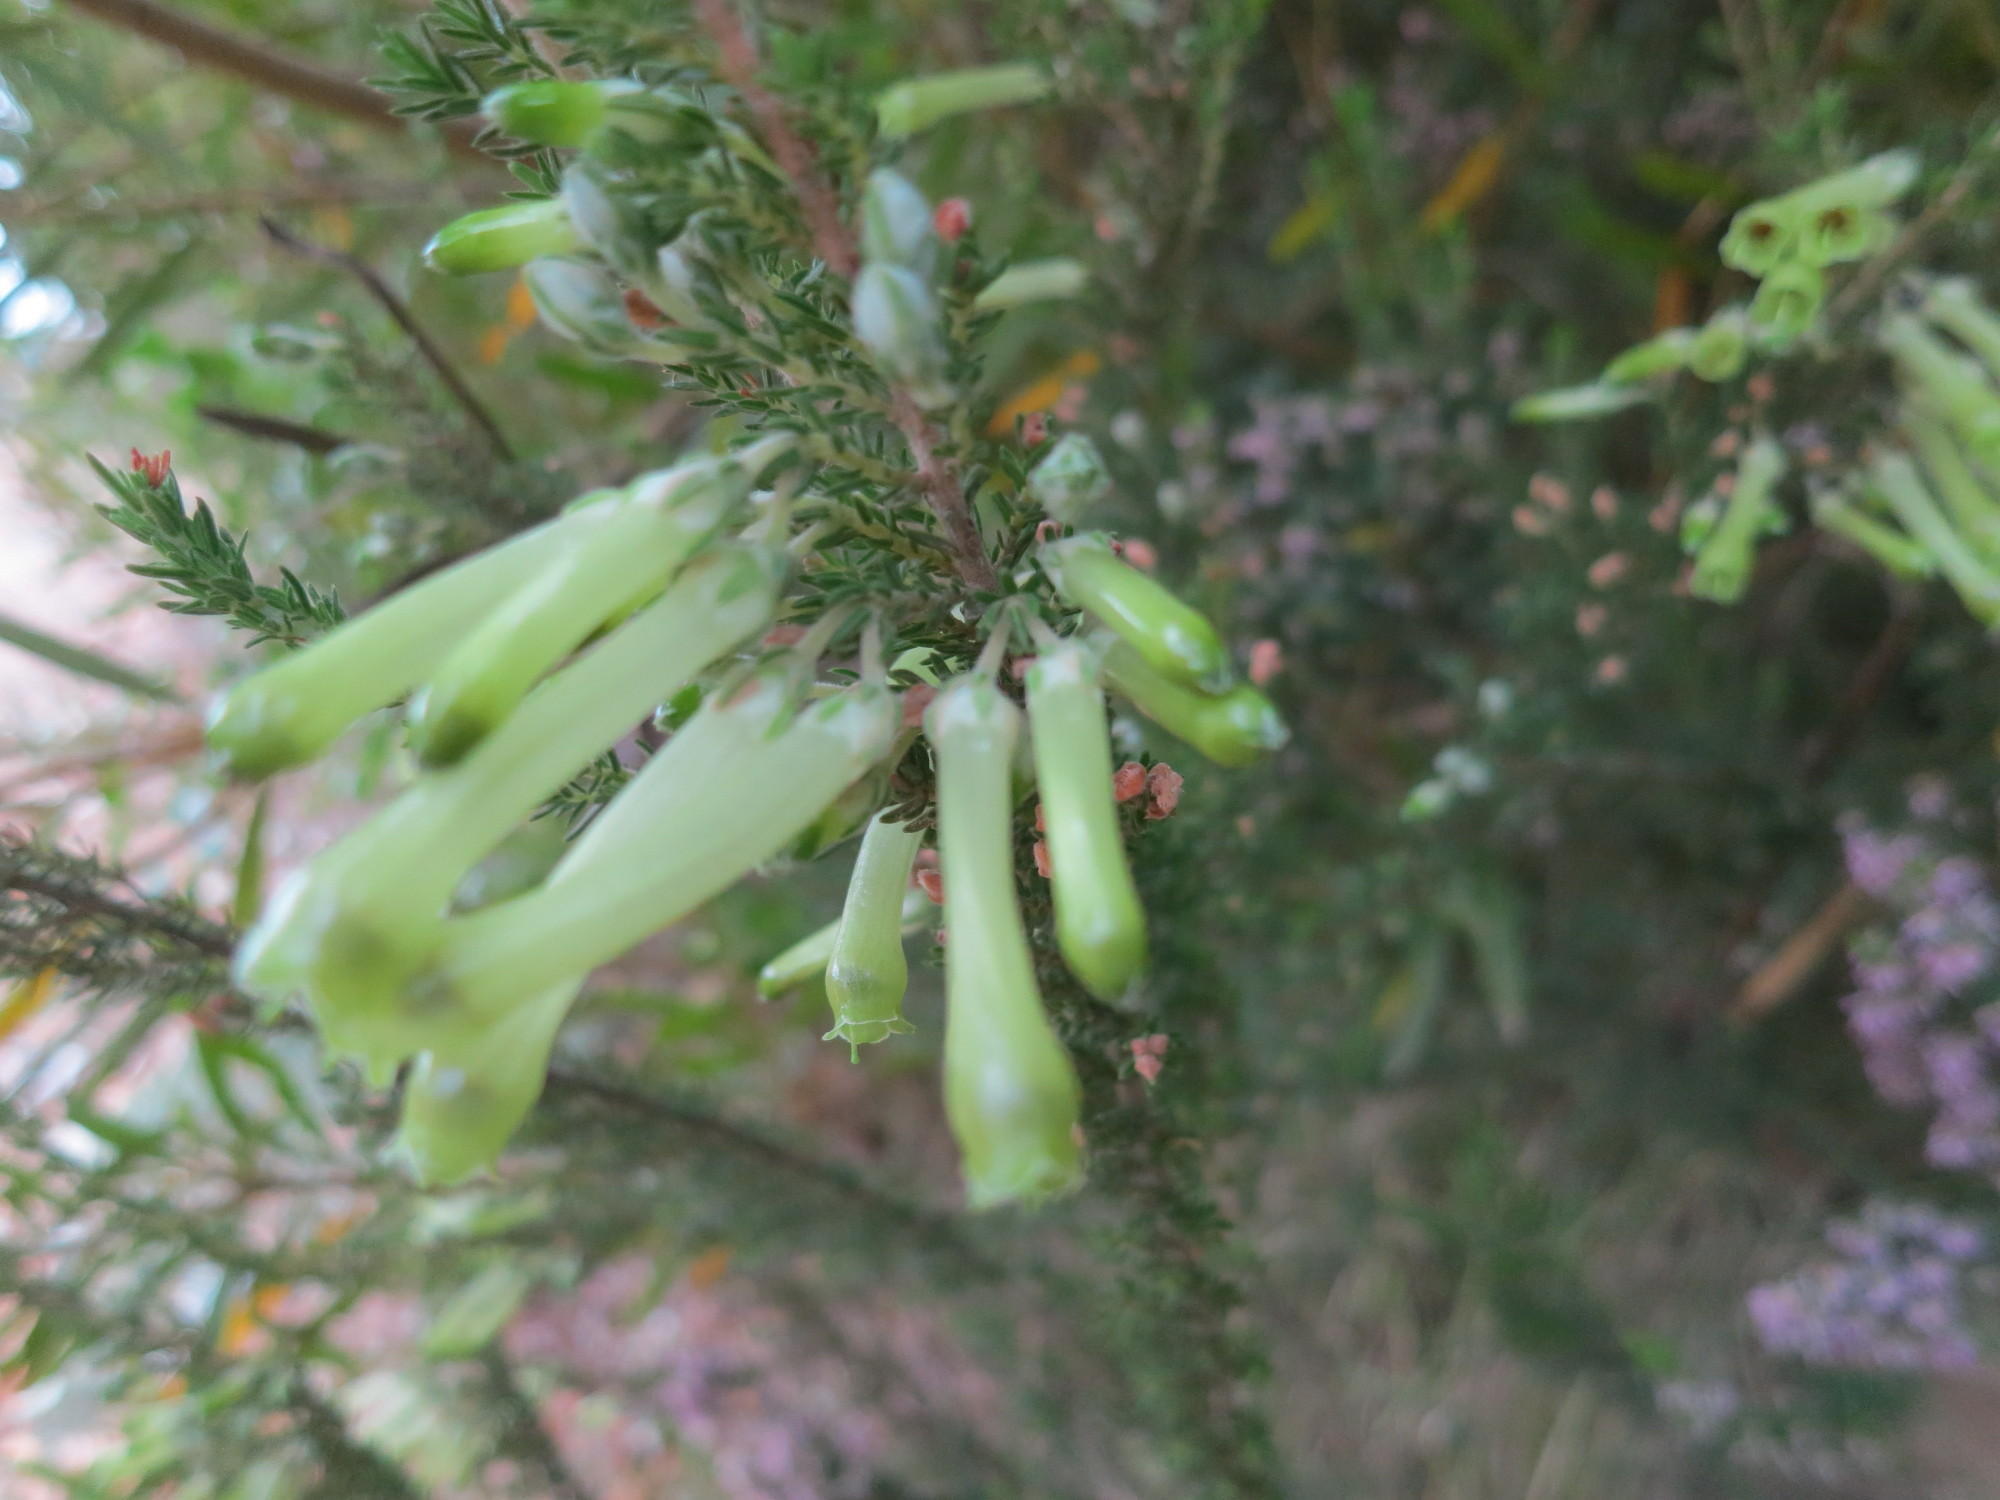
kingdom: Plantae
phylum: Tracheophyta
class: Magnoliopsida
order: Ericales
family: Ericaceae
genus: Erica
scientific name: Erica discolor
